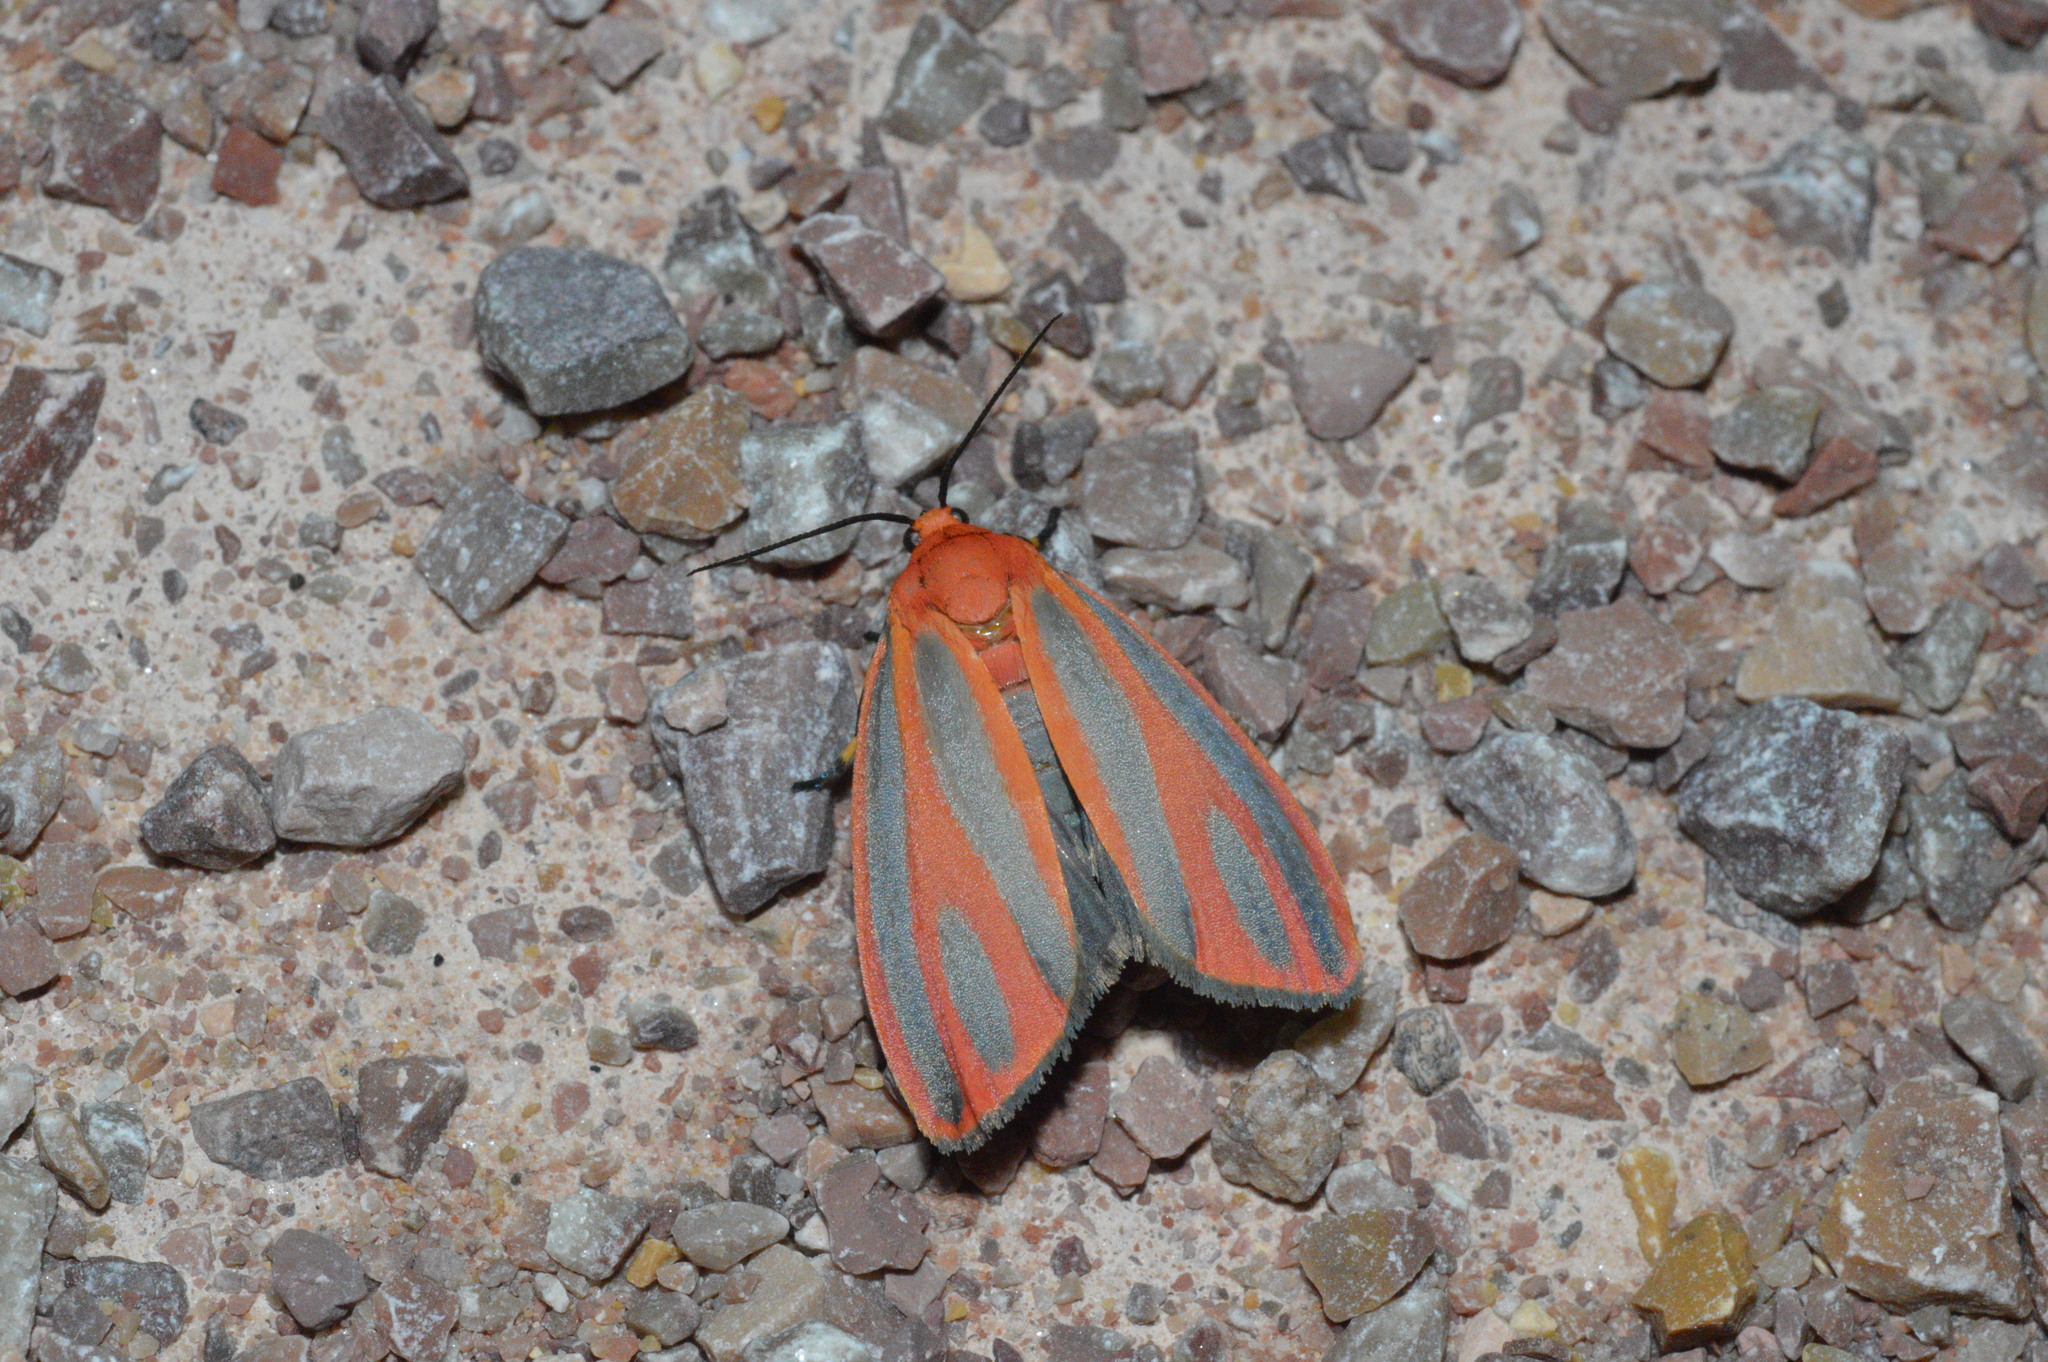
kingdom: Animalia
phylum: Arthropoda
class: Insecta
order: Lepidoptera
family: Erebidae
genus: Hypoprepia
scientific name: Hypoprepia miniata
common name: Scarlet-winged lichen moth
